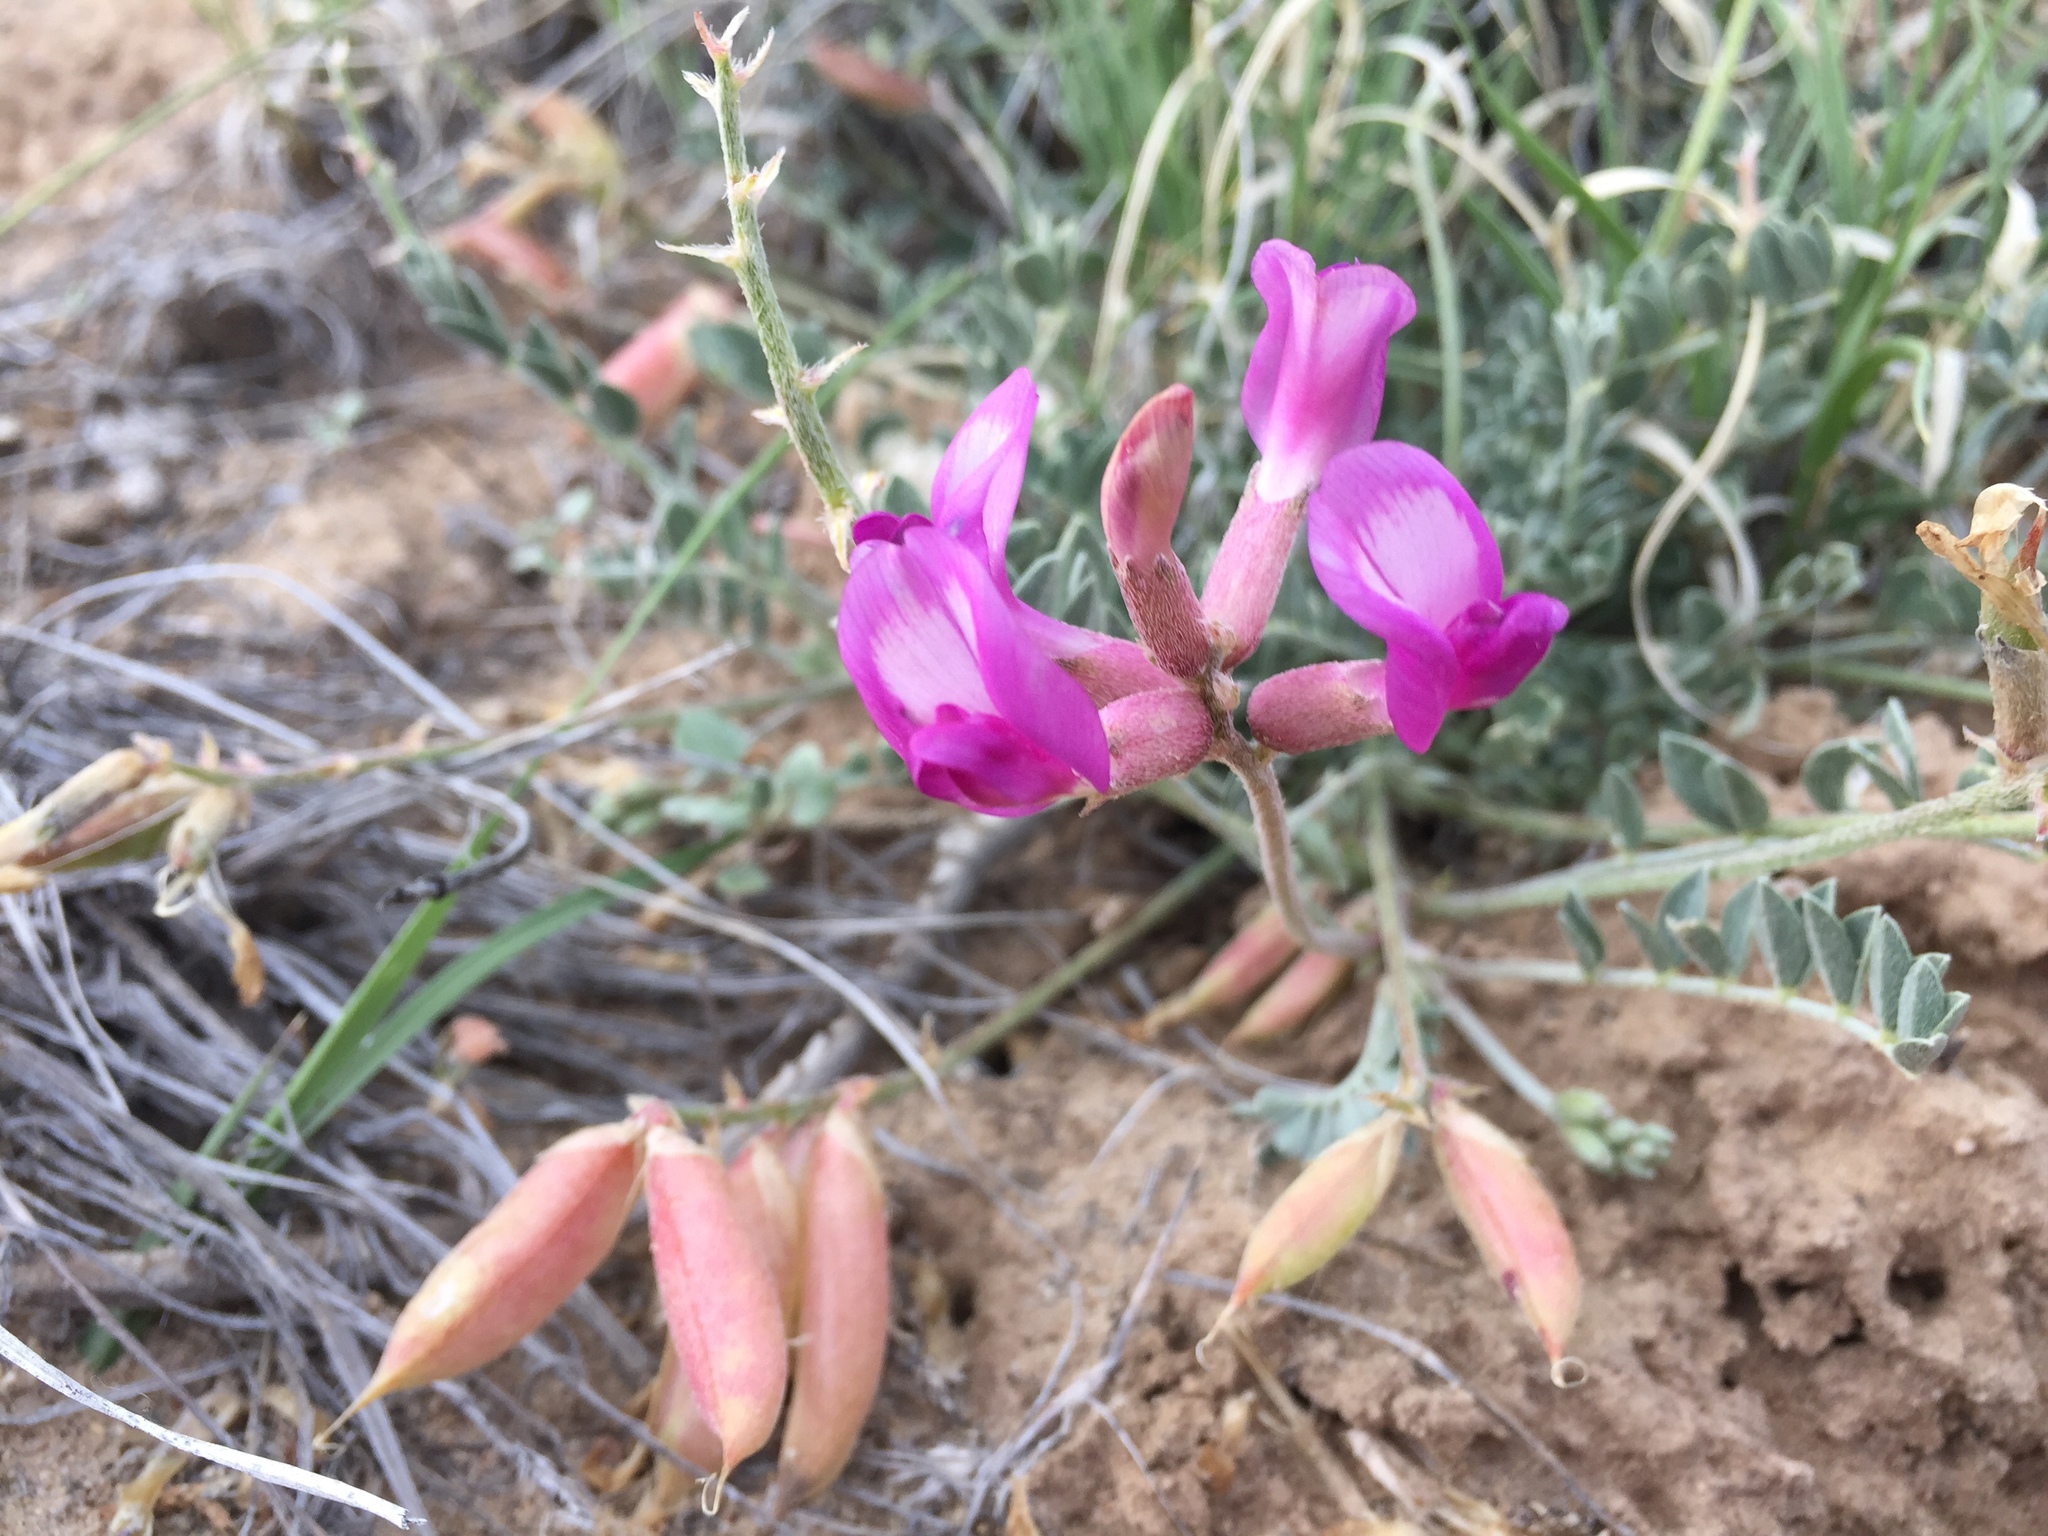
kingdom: Plantae
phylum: Tracheophyta
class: Magnoliopsida
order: Fabales
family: Fabaceae
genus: Astragalus
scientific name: Astragalus missouriensis
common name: Missouri milk-vetch
